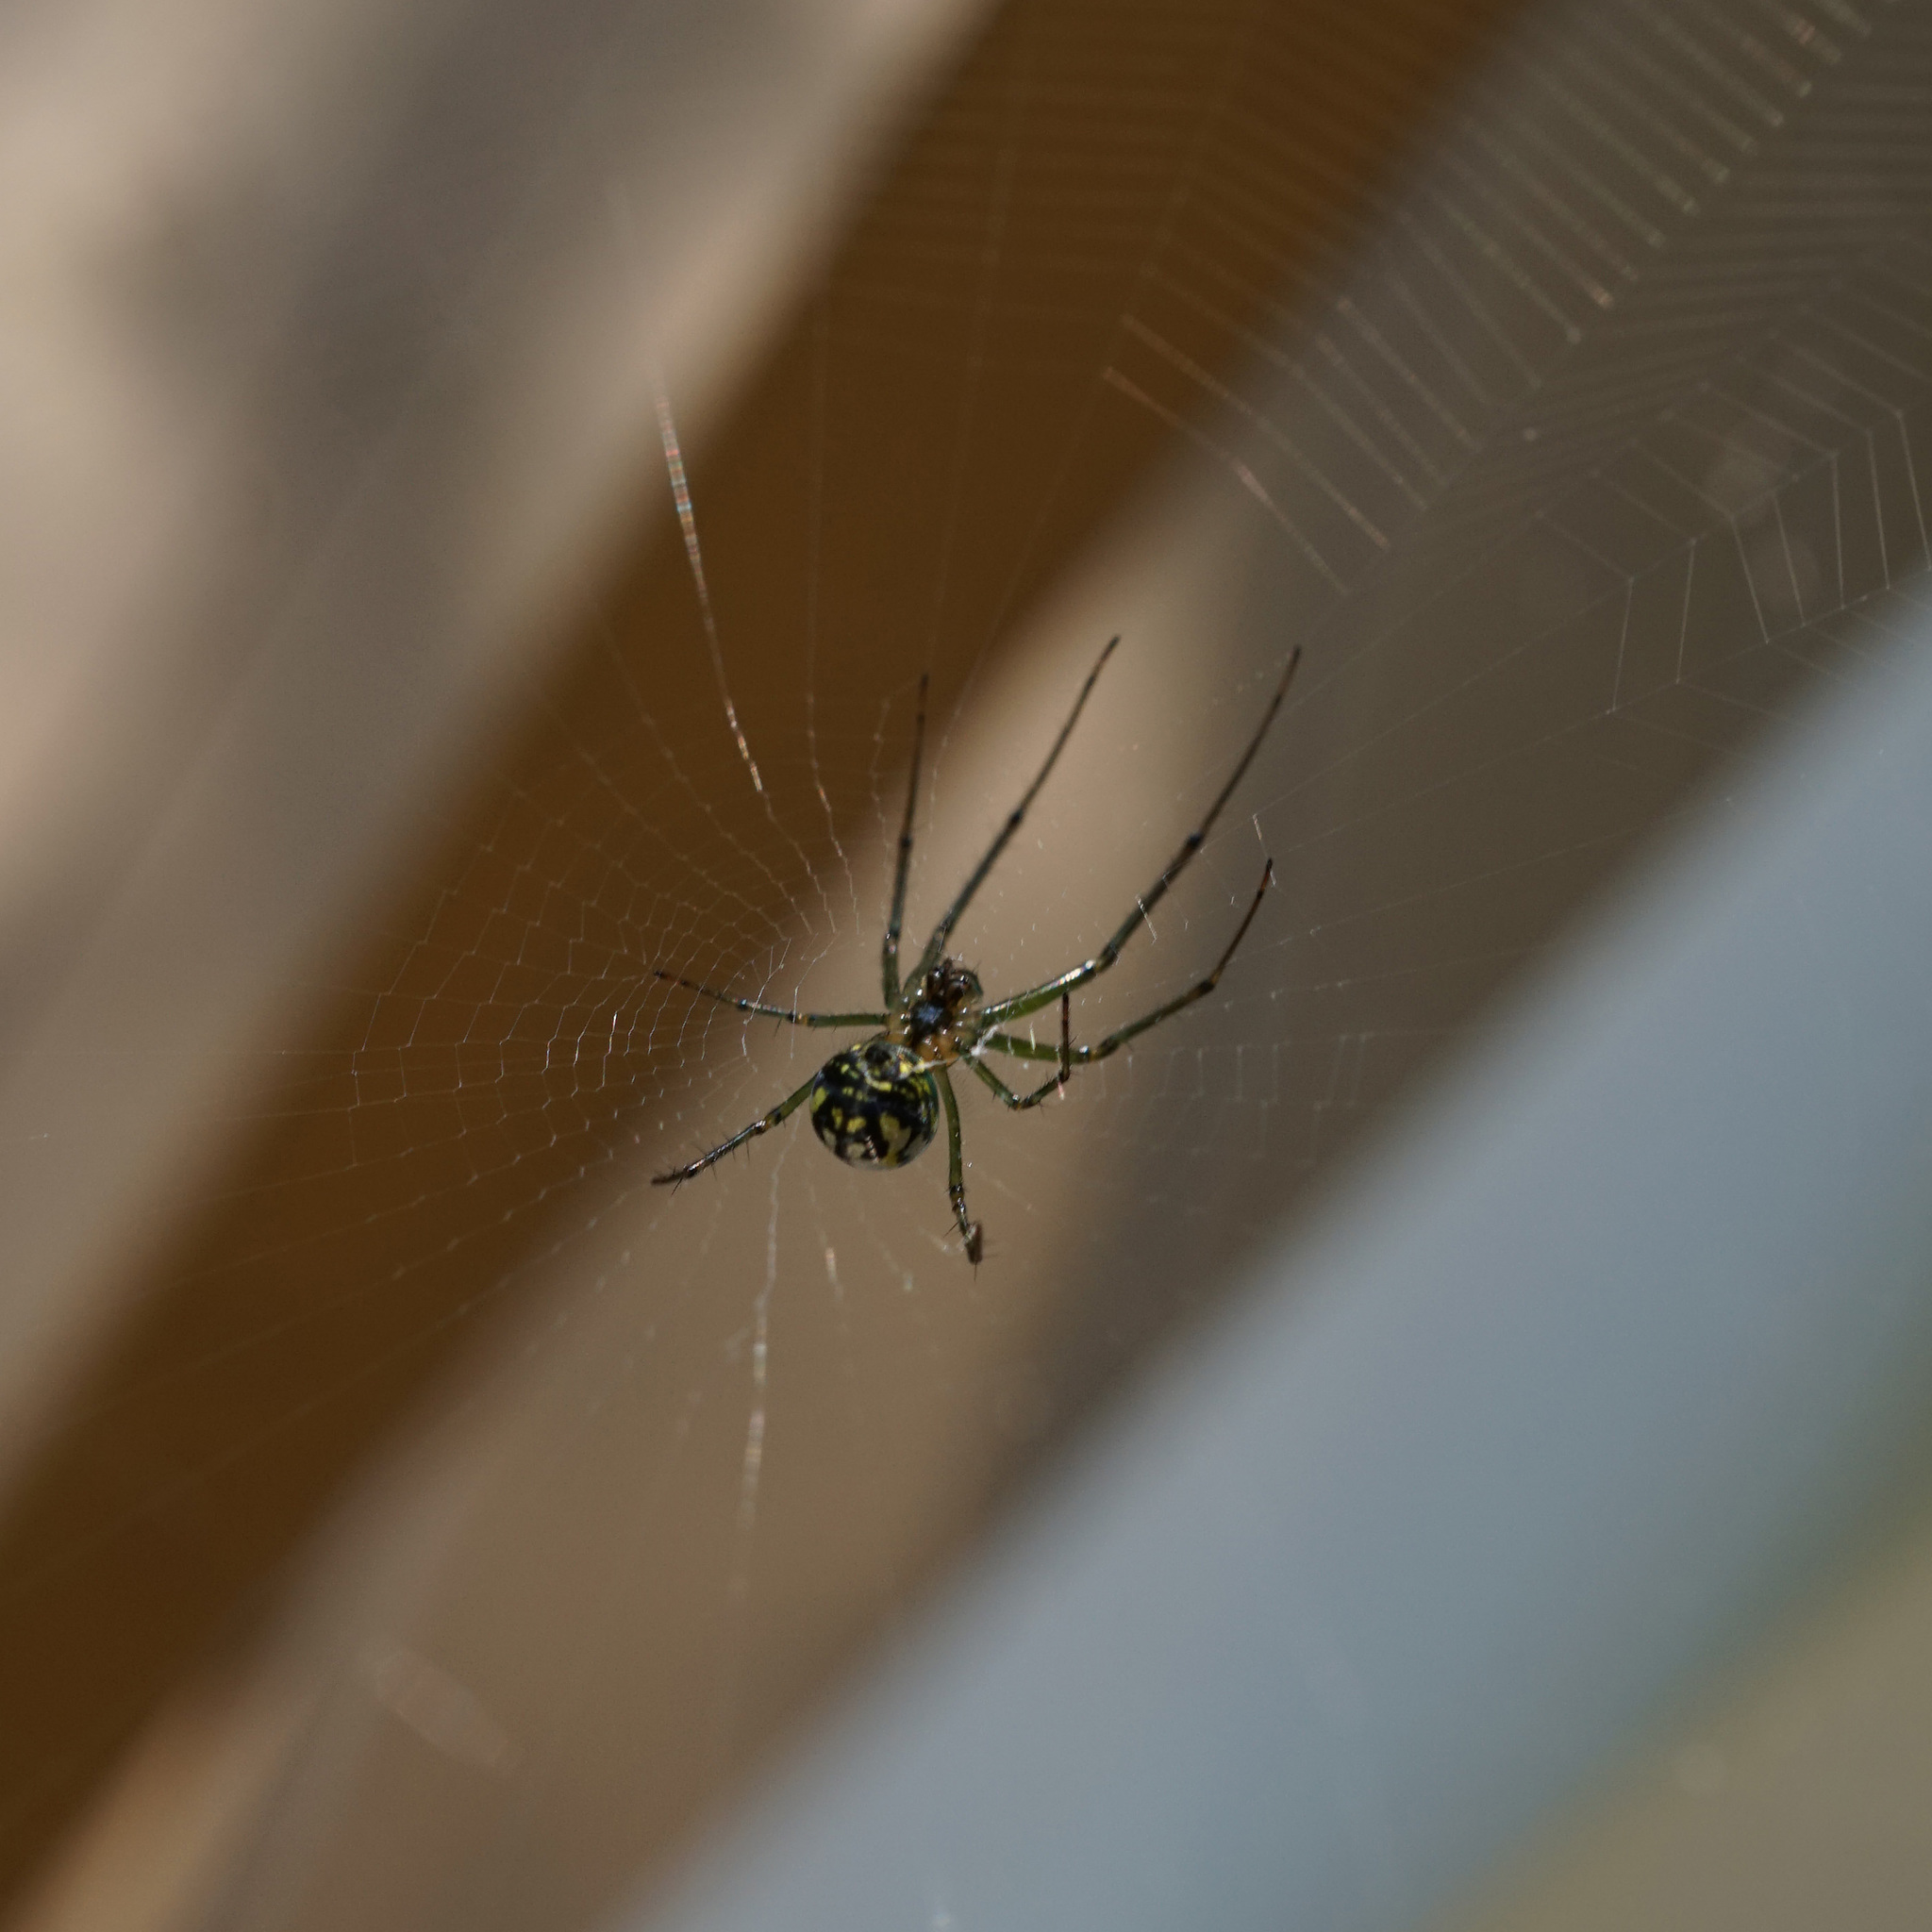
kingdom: Animalia
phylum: Arthropoda
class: Arachnida
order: Araneae
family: Tetragnathidae
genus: Leucauge
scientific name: Leucauge venusta
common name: Longjawed orb weavers
